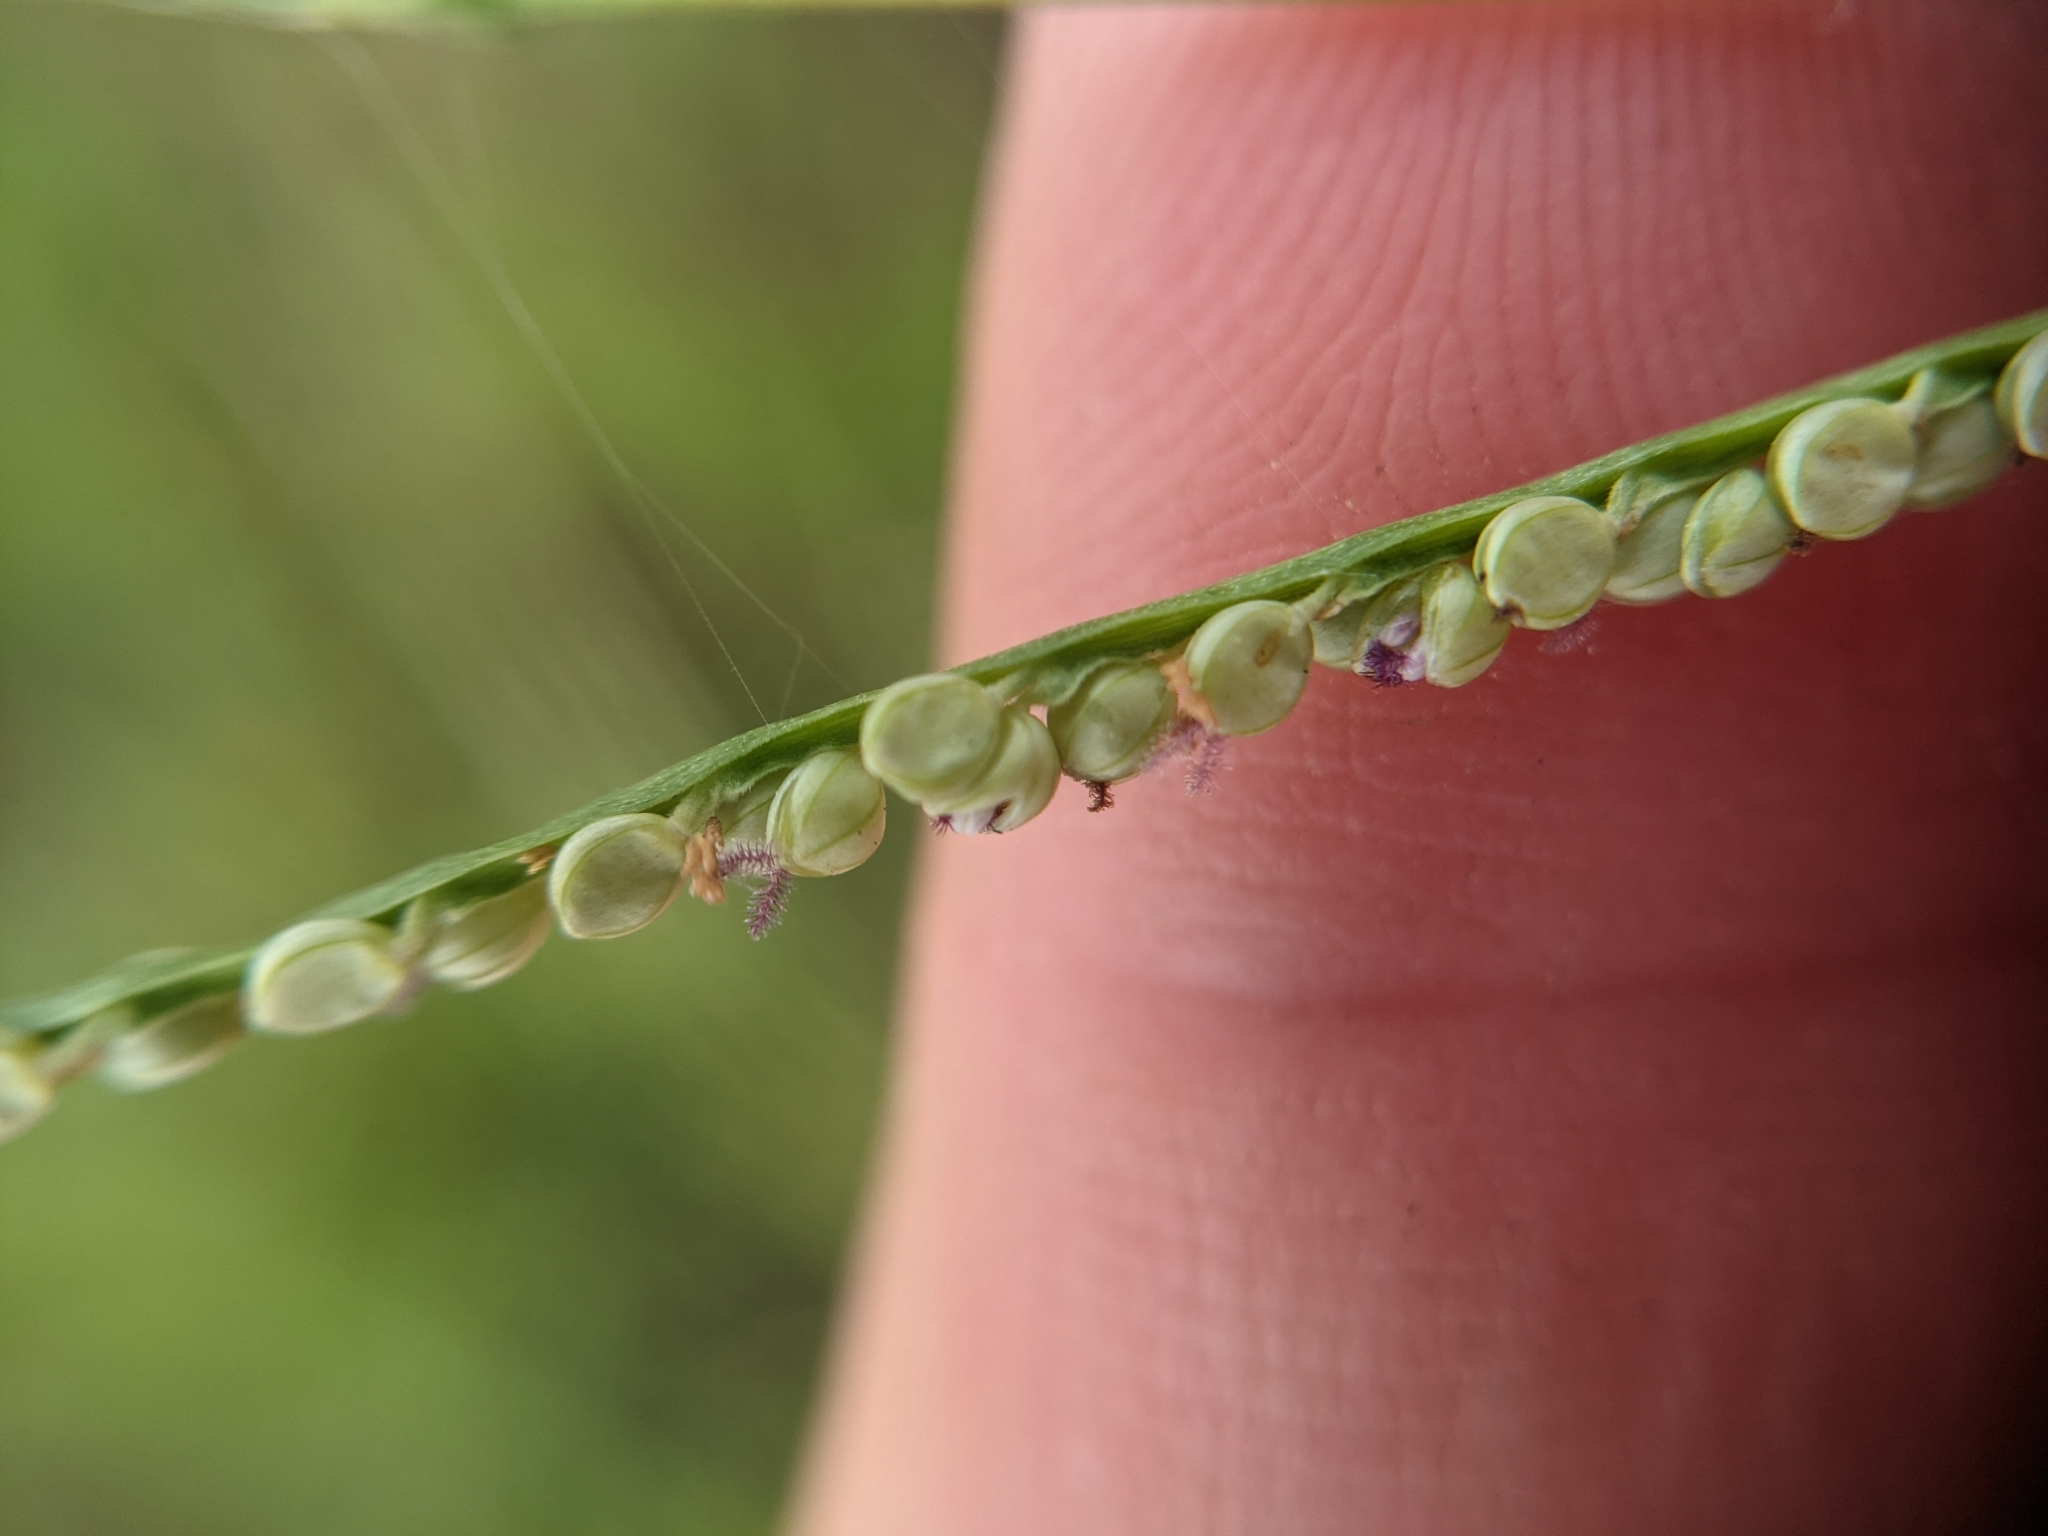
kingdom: Plantae
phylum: Tracheophyta
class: Liliopsida
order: Poales
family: Poaceae
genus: Paspalum
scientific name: Paspalum setaceum
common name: Slender paspalum
